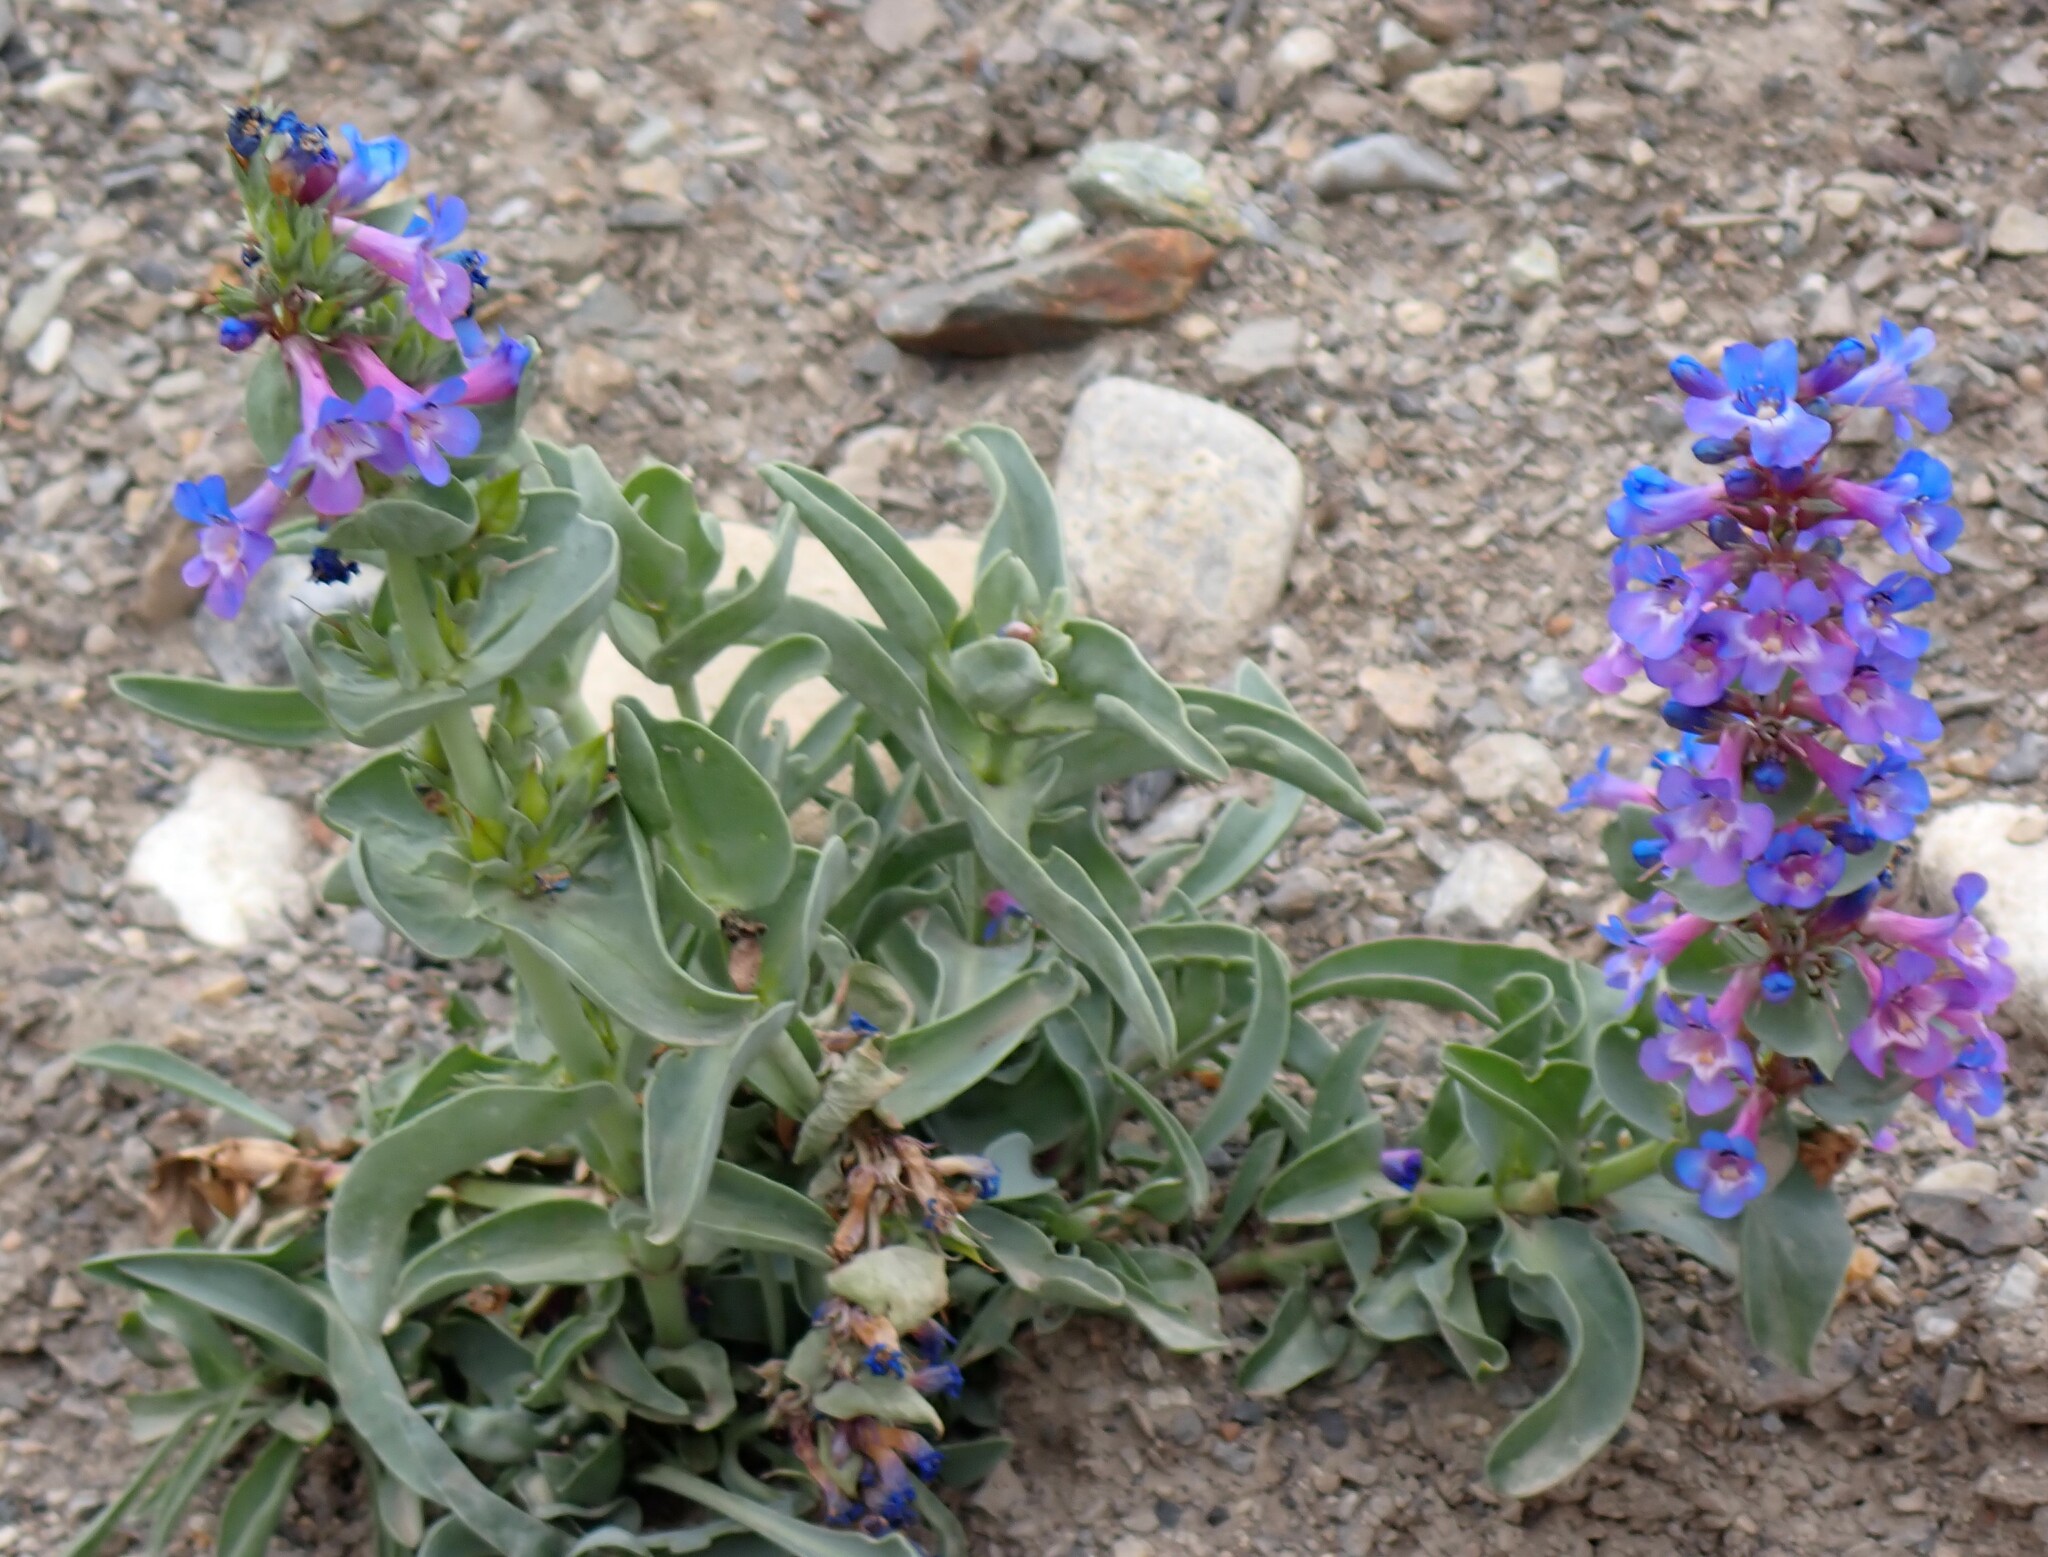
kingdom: Plantae
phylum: Tracheophyta
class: Magnoliopsida
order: Lamiales
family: Plantaginaceae
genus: Penstemon
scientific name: Penstemon nitidus
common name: Shining penstemon
